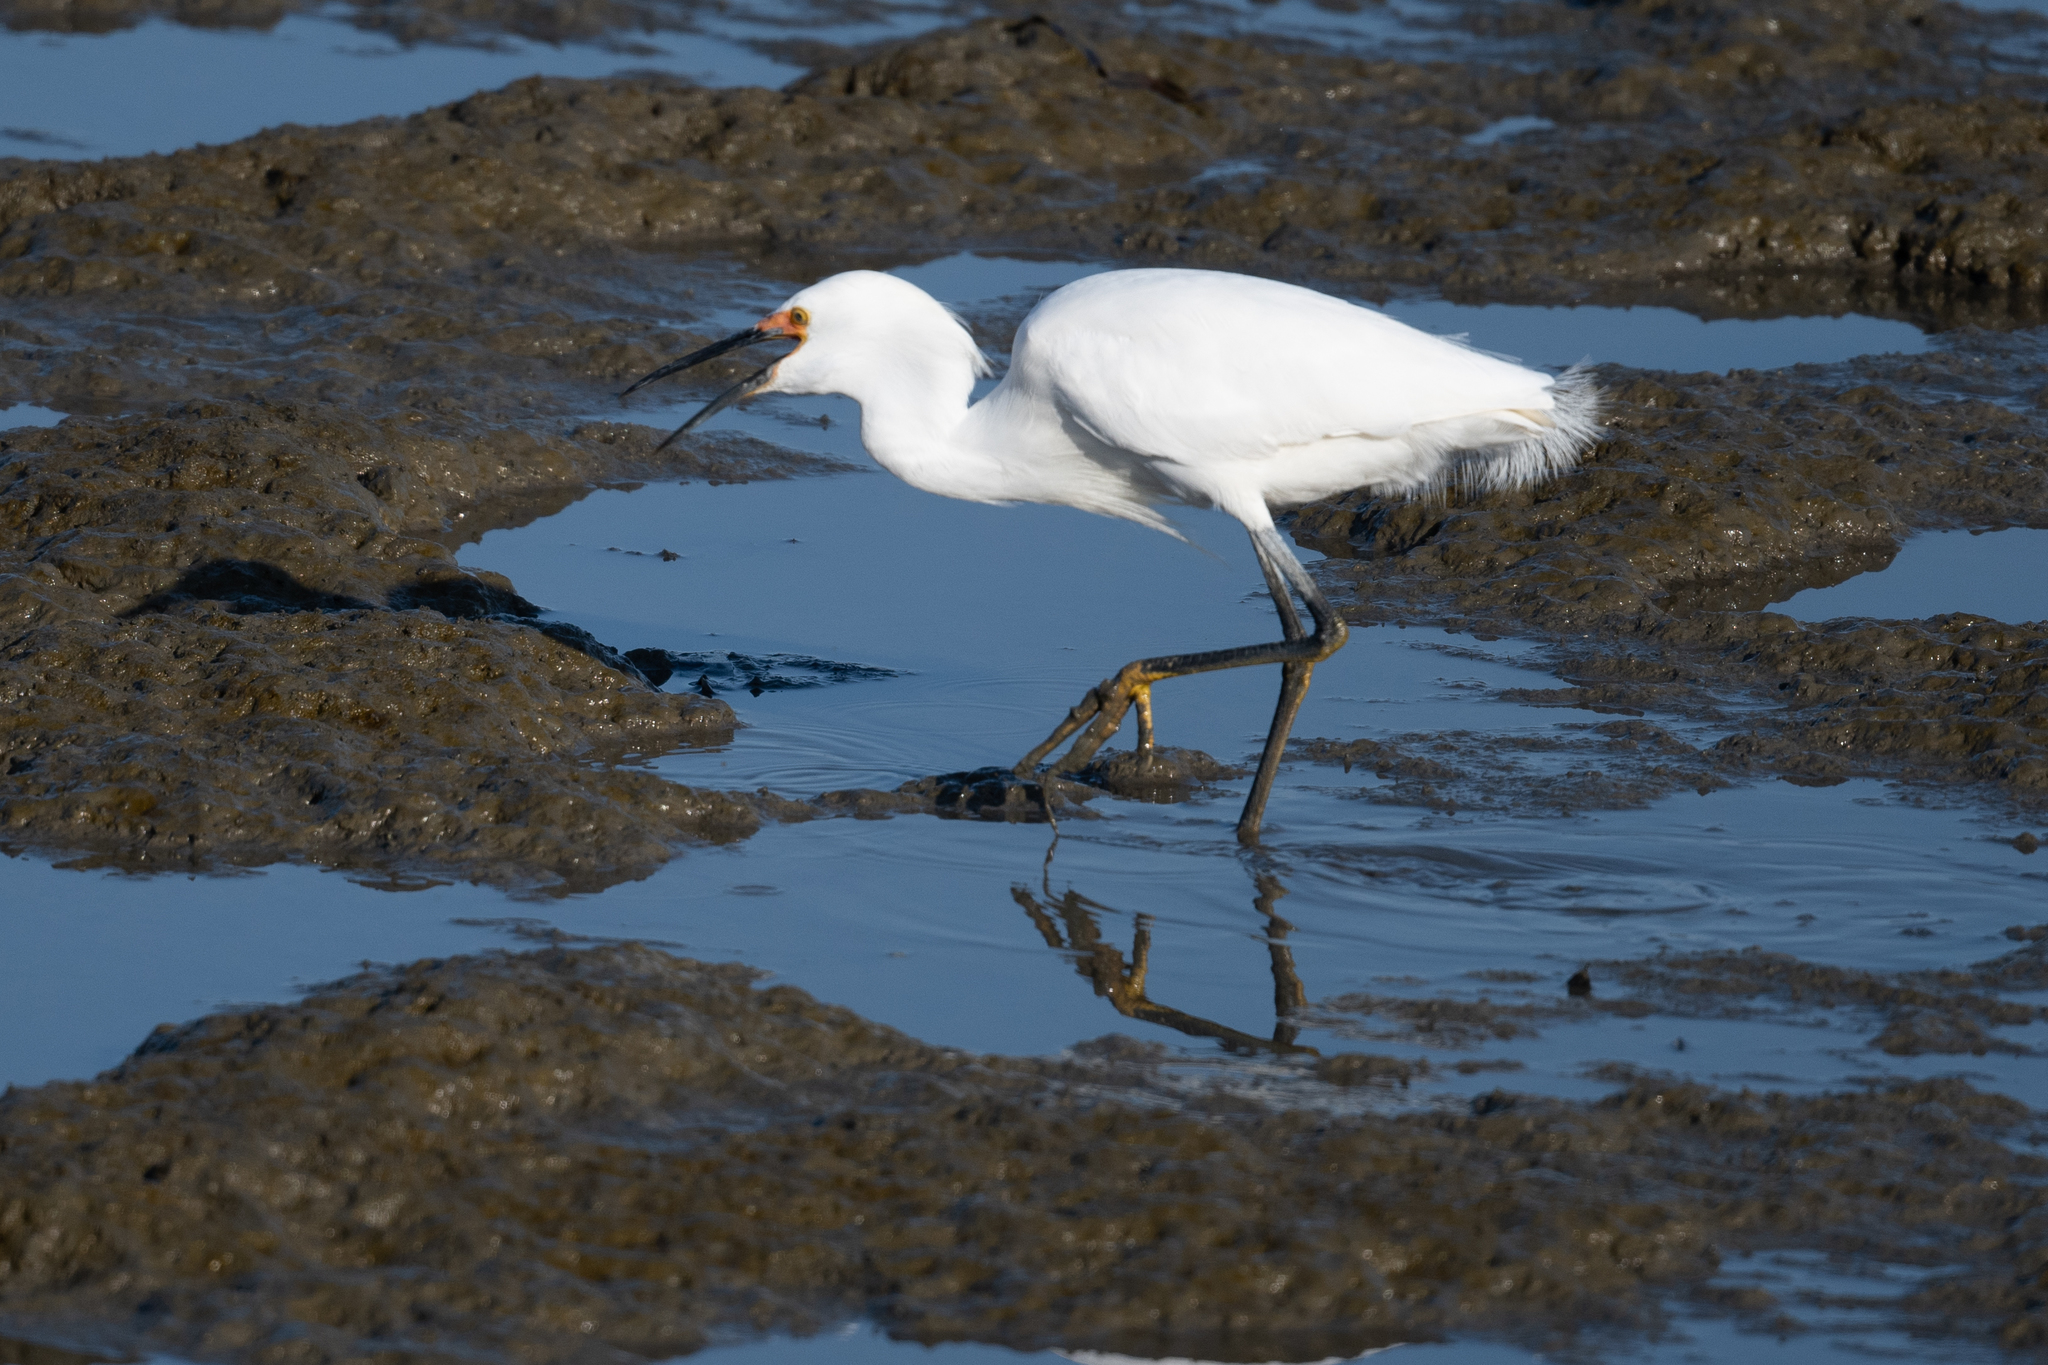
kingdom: Animalia
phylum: Chordata
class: Aves
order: Pelecaniformes
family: Ardeidae
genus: Egretta
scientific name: Egretta thula
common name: Snowy egret
